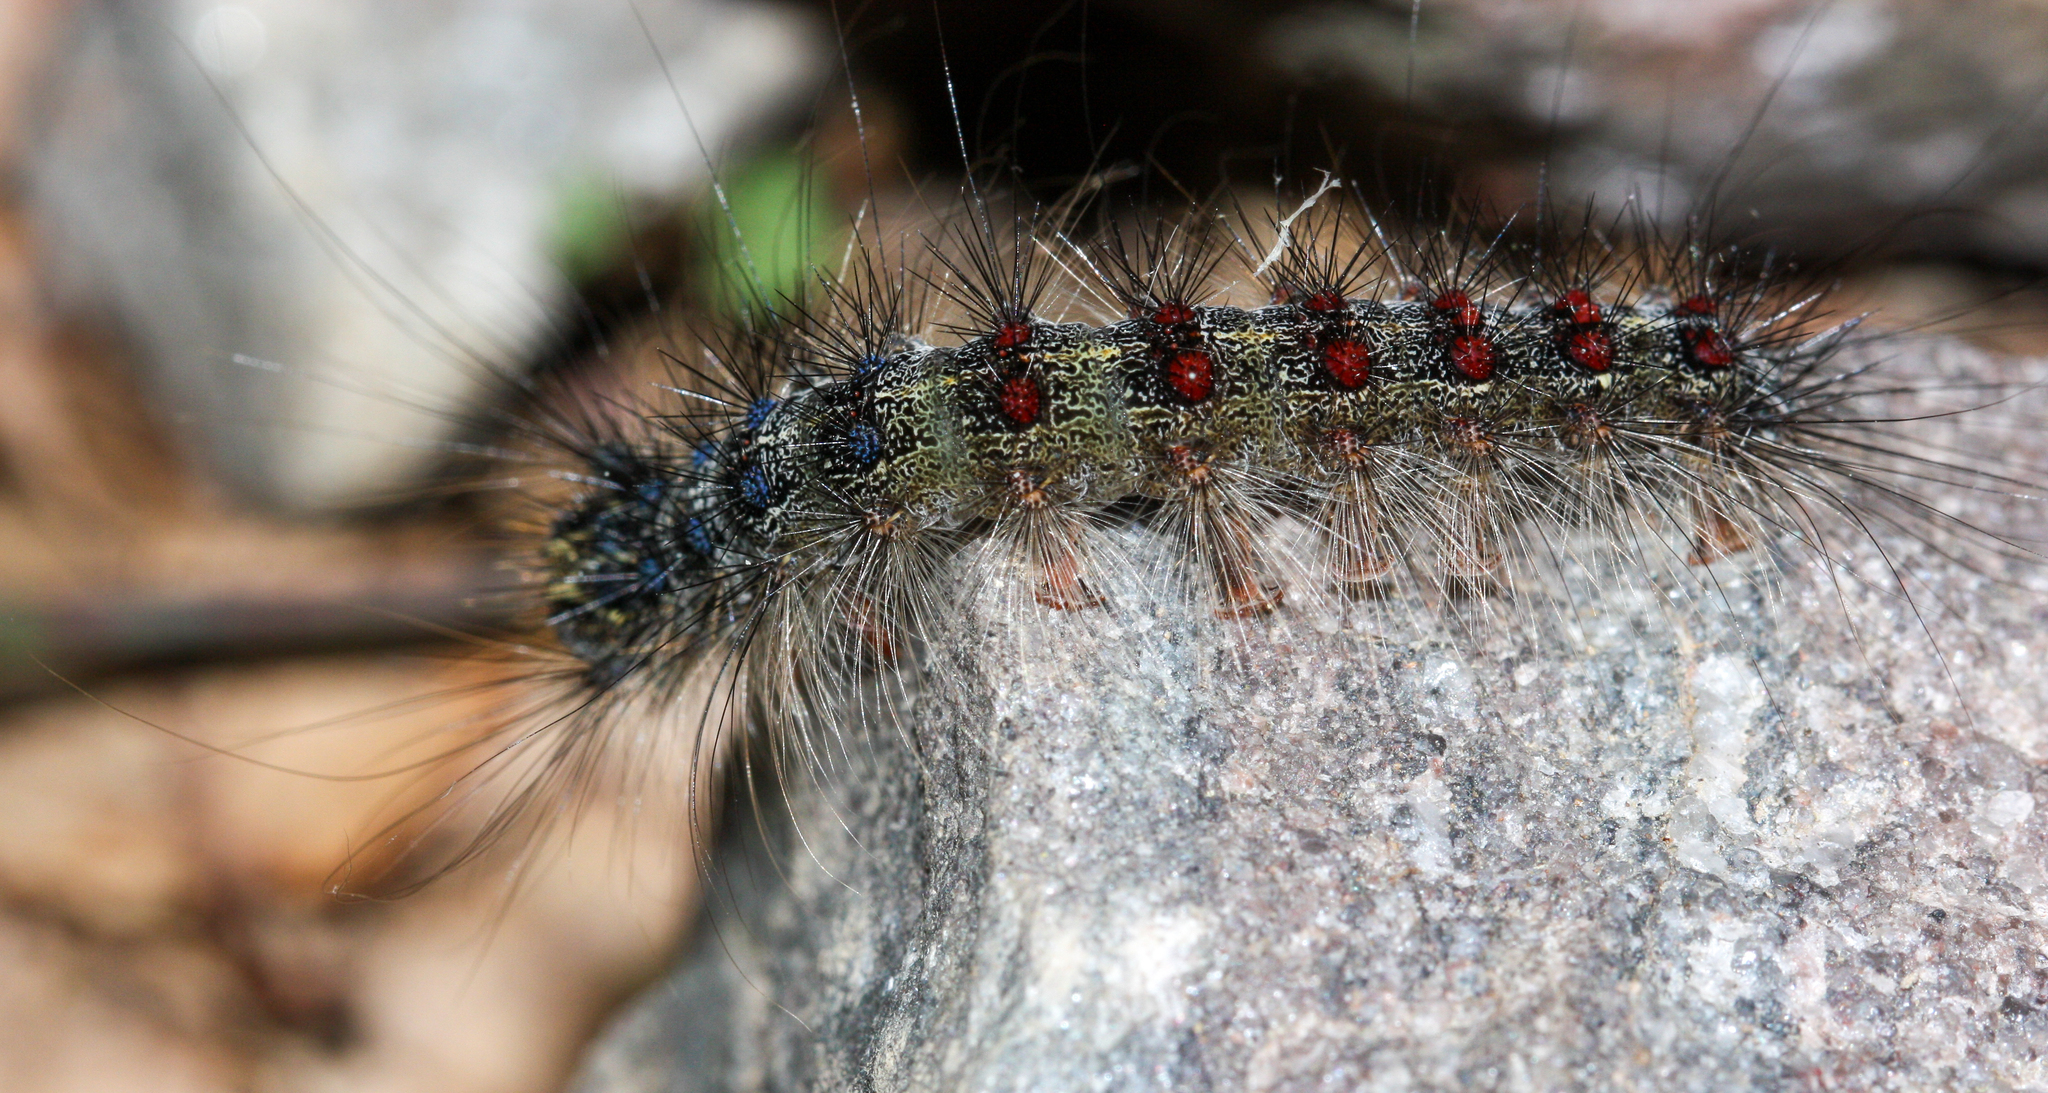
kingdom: Animalia
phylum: Arthropoda
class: Insecta
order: Lepidoptera
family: Erebidae
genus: Lymantria
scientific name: Lymantria dispar
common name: Gypsy moth
